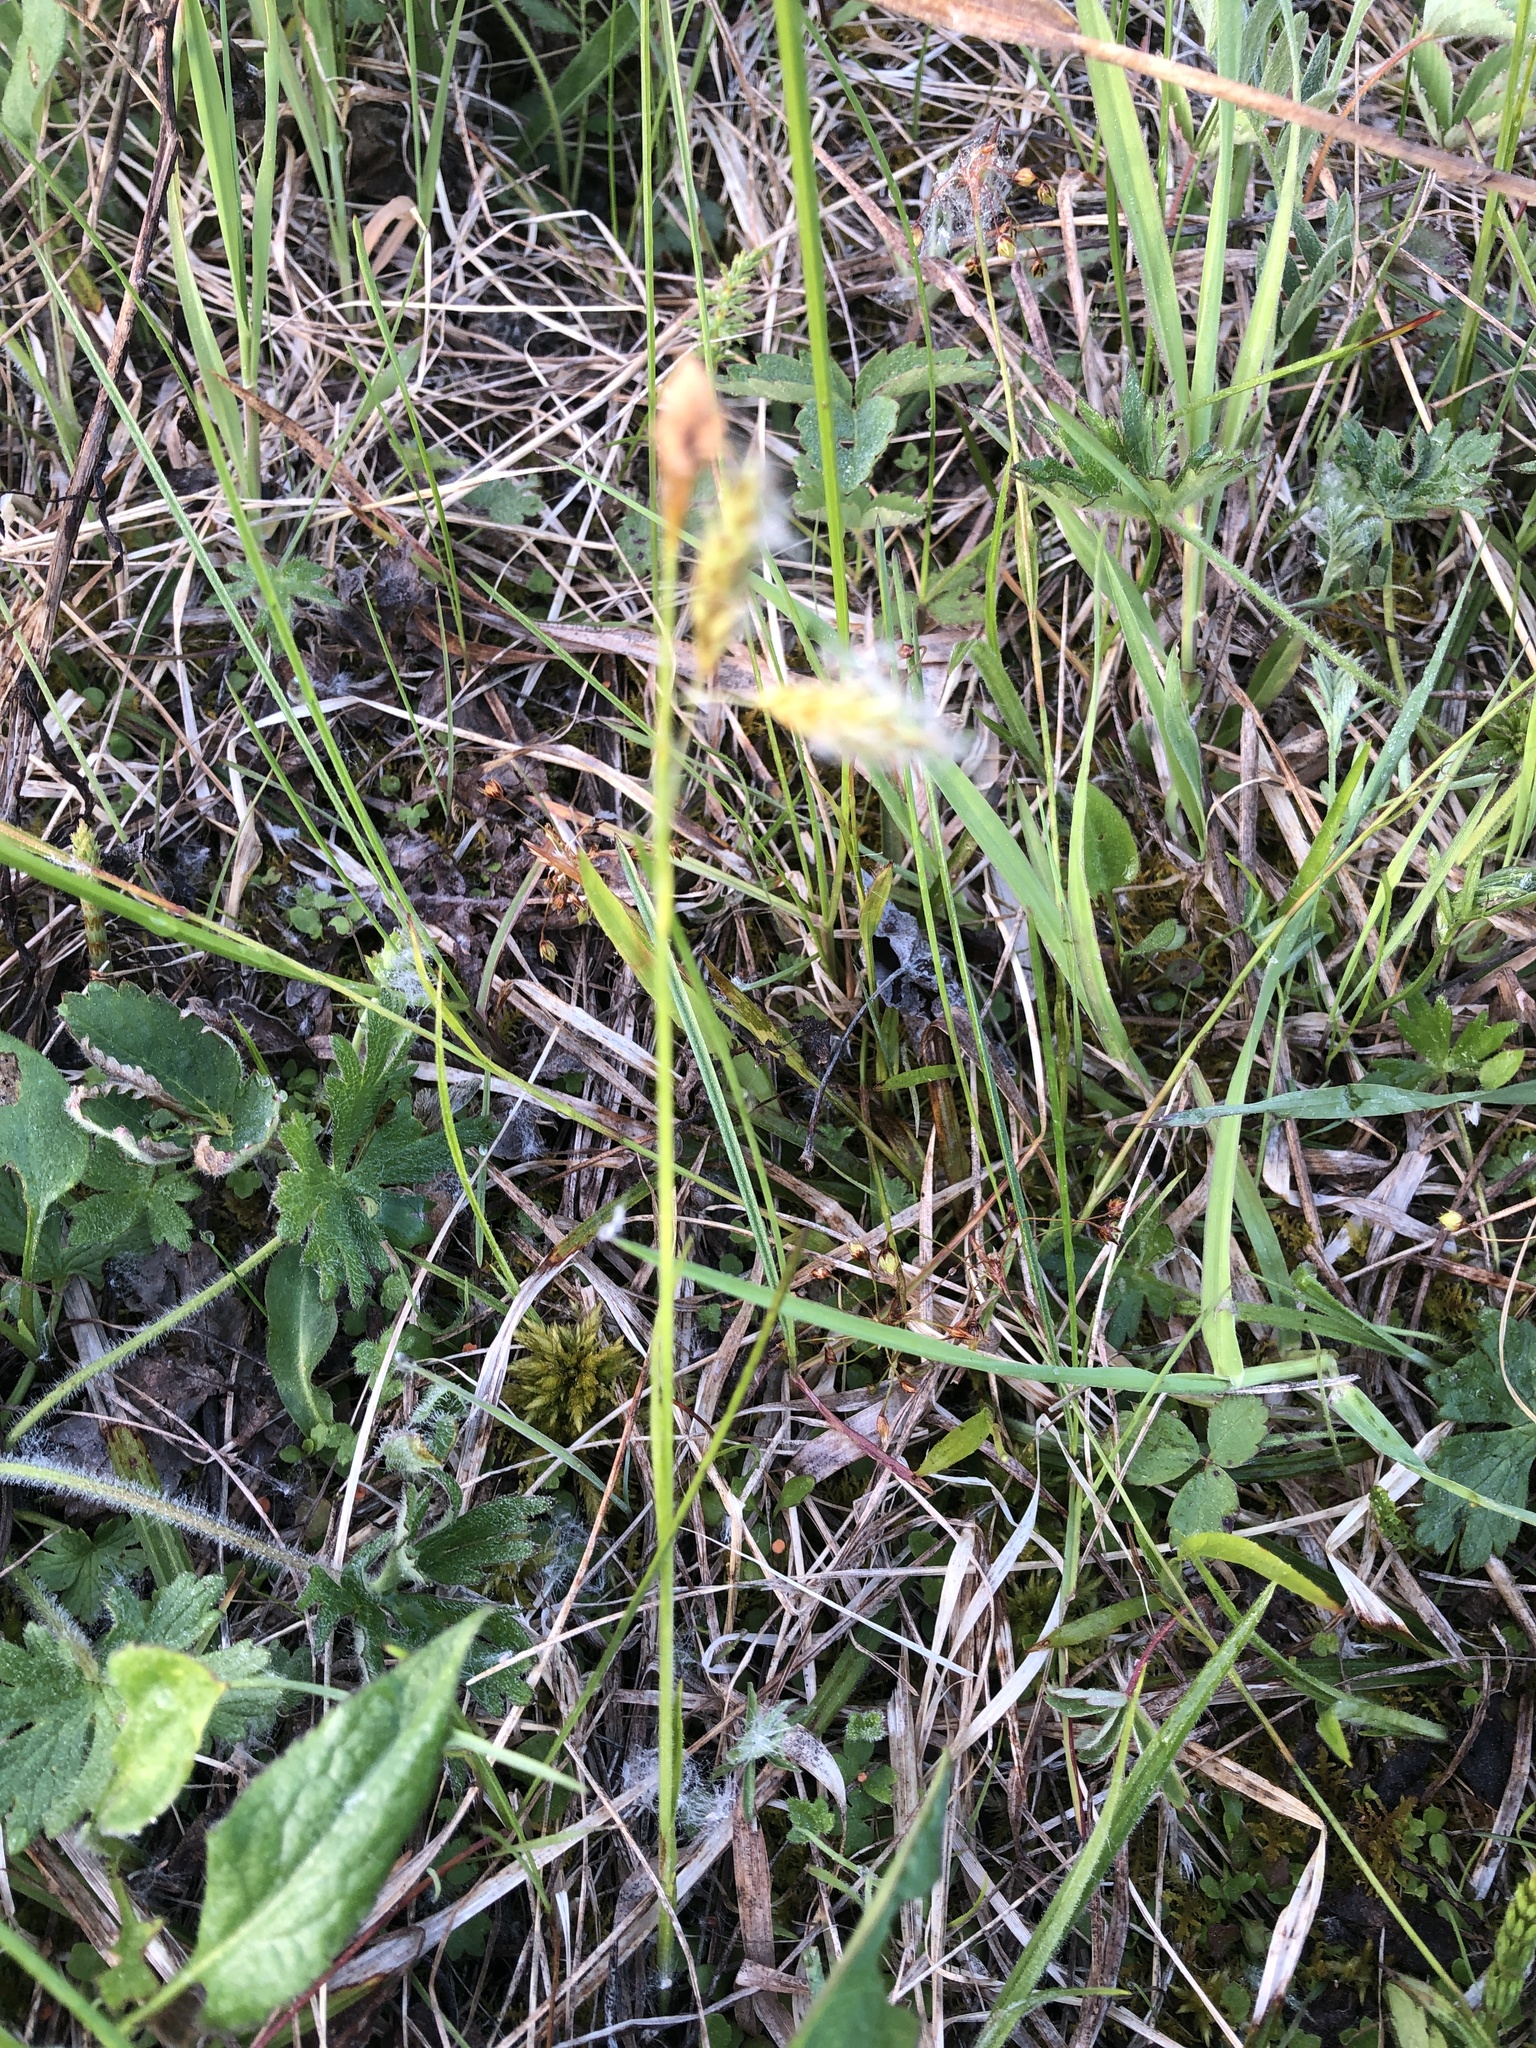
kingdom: Plantae
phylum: Tracheophyta
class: Liliopsida
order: Poales
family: Cyperaceae
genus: Carex
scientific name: Carex castanea
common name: Chestnut sedge
